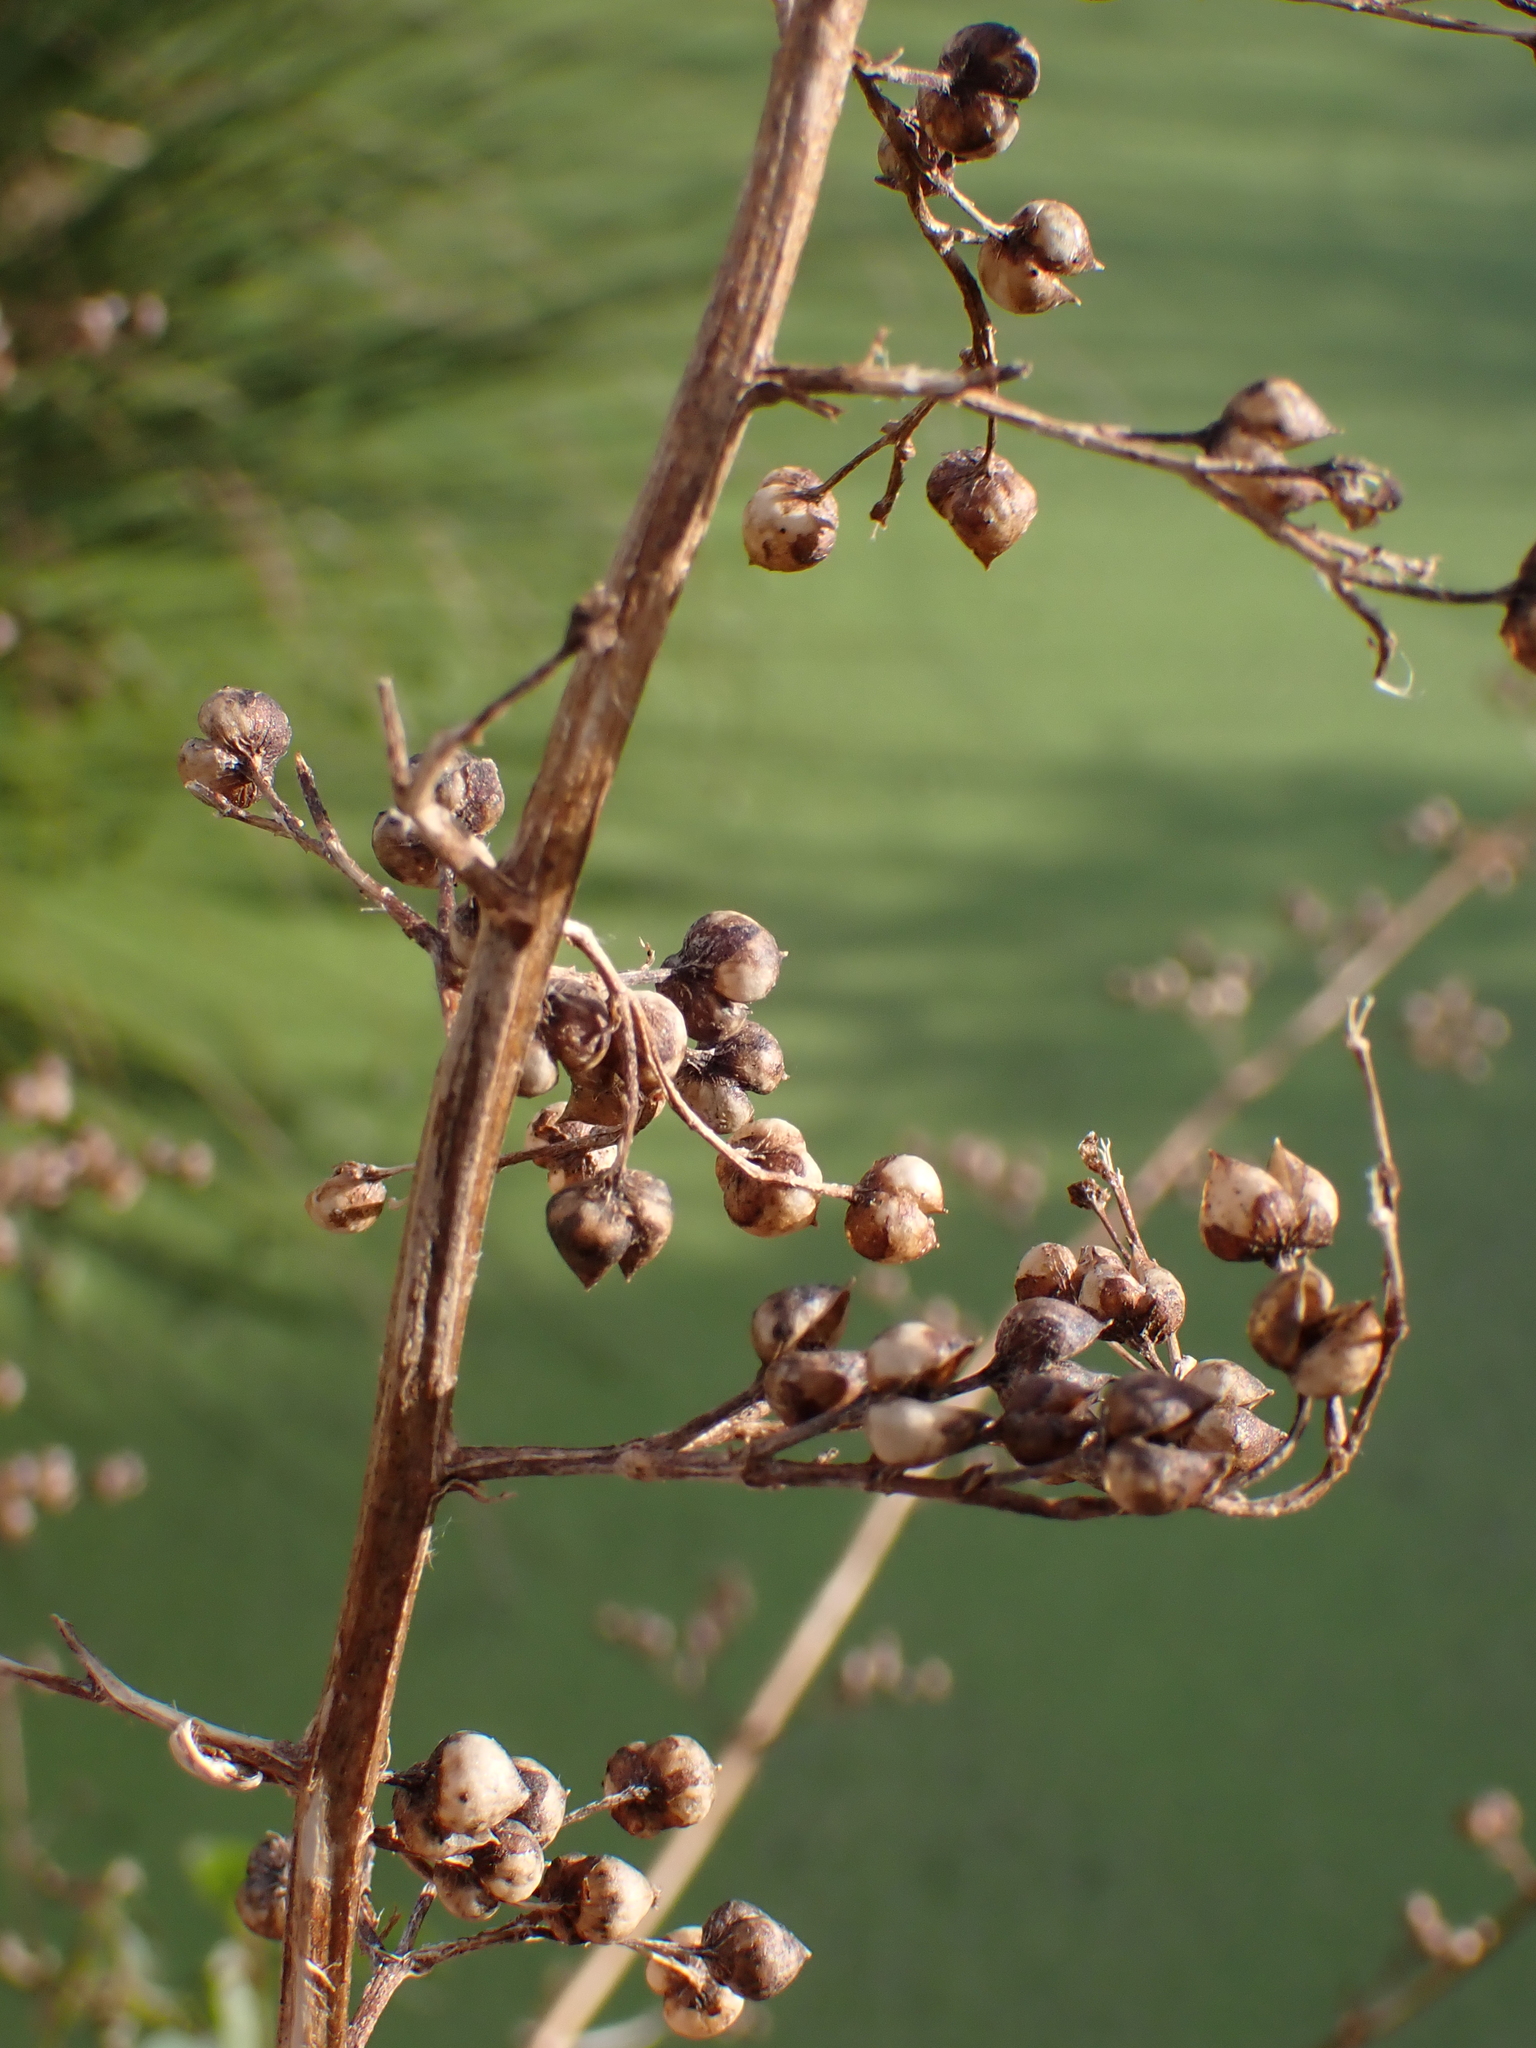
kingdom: Plantae
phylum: Tracheophyta
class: Magnoliopsida
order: Lamiales
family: Scrophulariaceae
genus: Scrophularia
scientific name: Scrophularia auriculata
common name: Water betony
